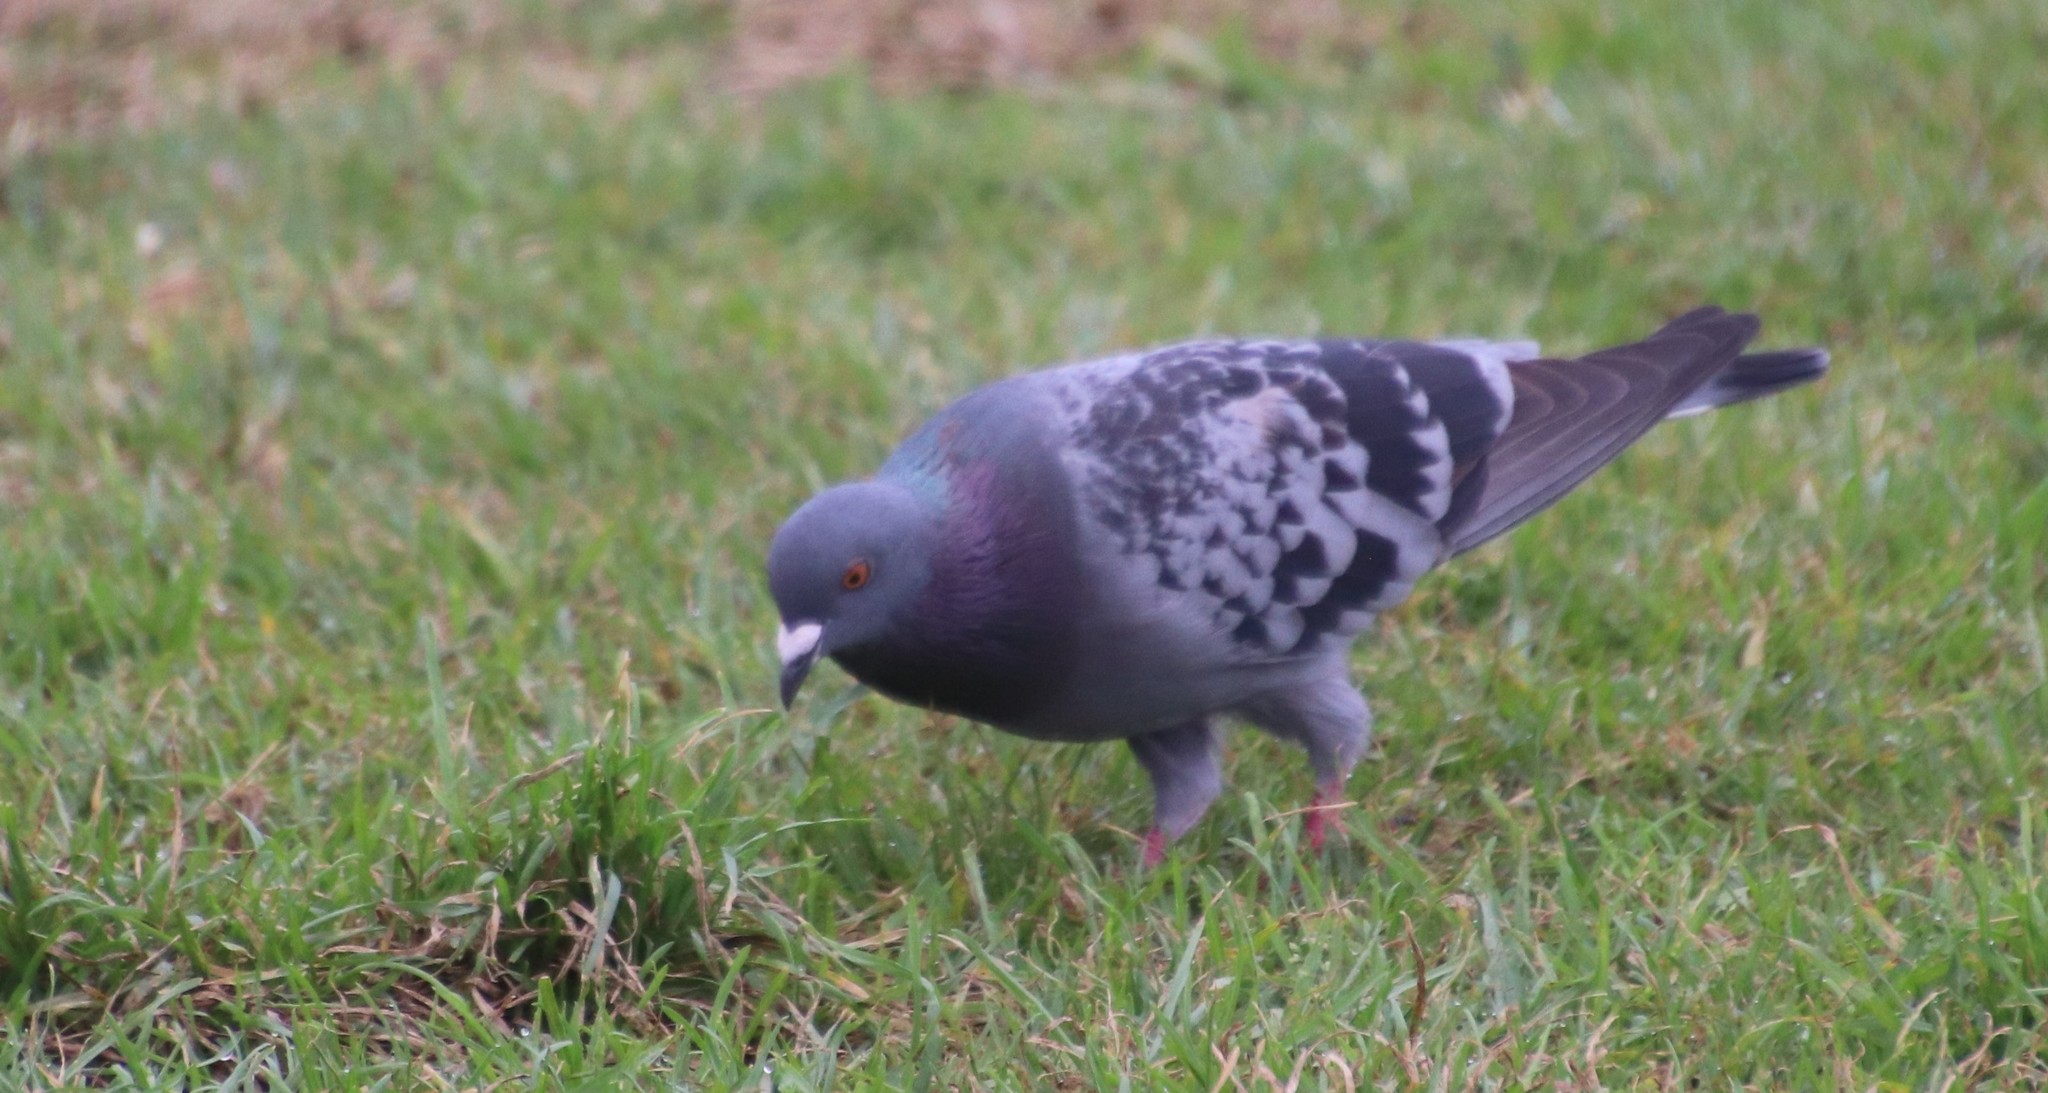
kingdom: Animalia
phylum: Chordata
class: Aves
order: Columbiformes
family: Columbidae
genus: Columba
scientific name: Columba livia
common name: Rock pigeon
